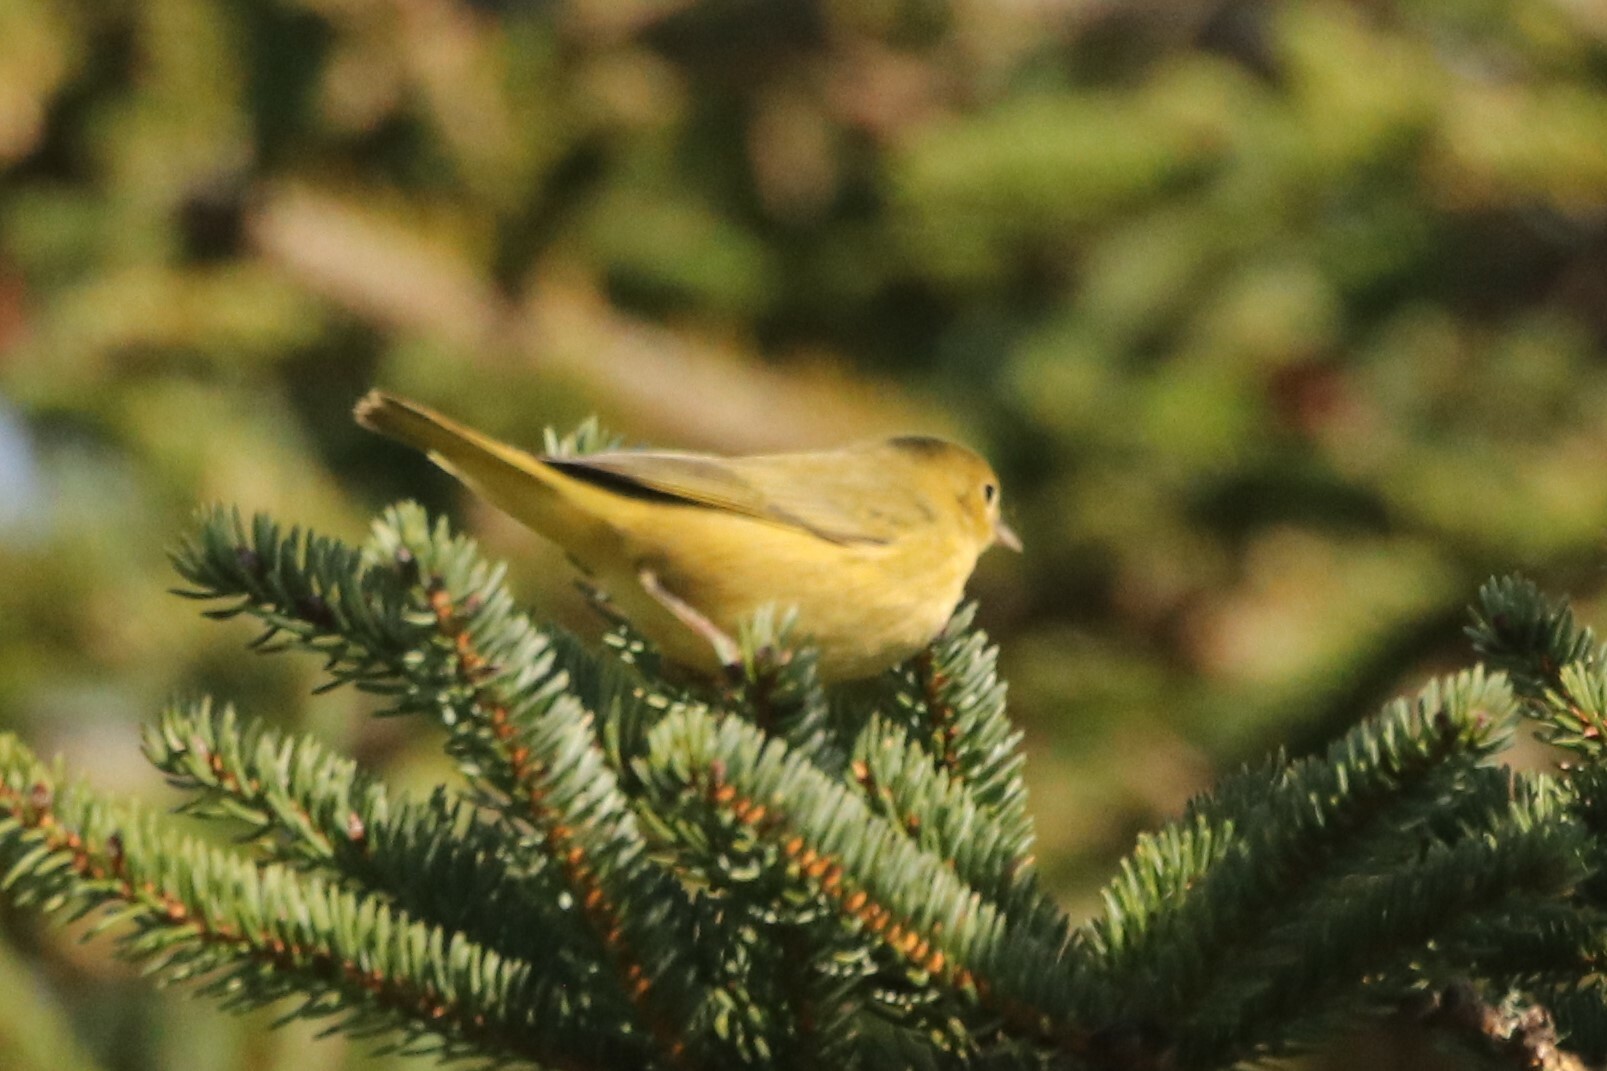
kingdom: Animalia
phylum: Chordata
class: Aves
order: Passeriformes
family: Parulidae
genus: Setophaga
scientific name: Setophaga petechia
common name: Yellow warbler
